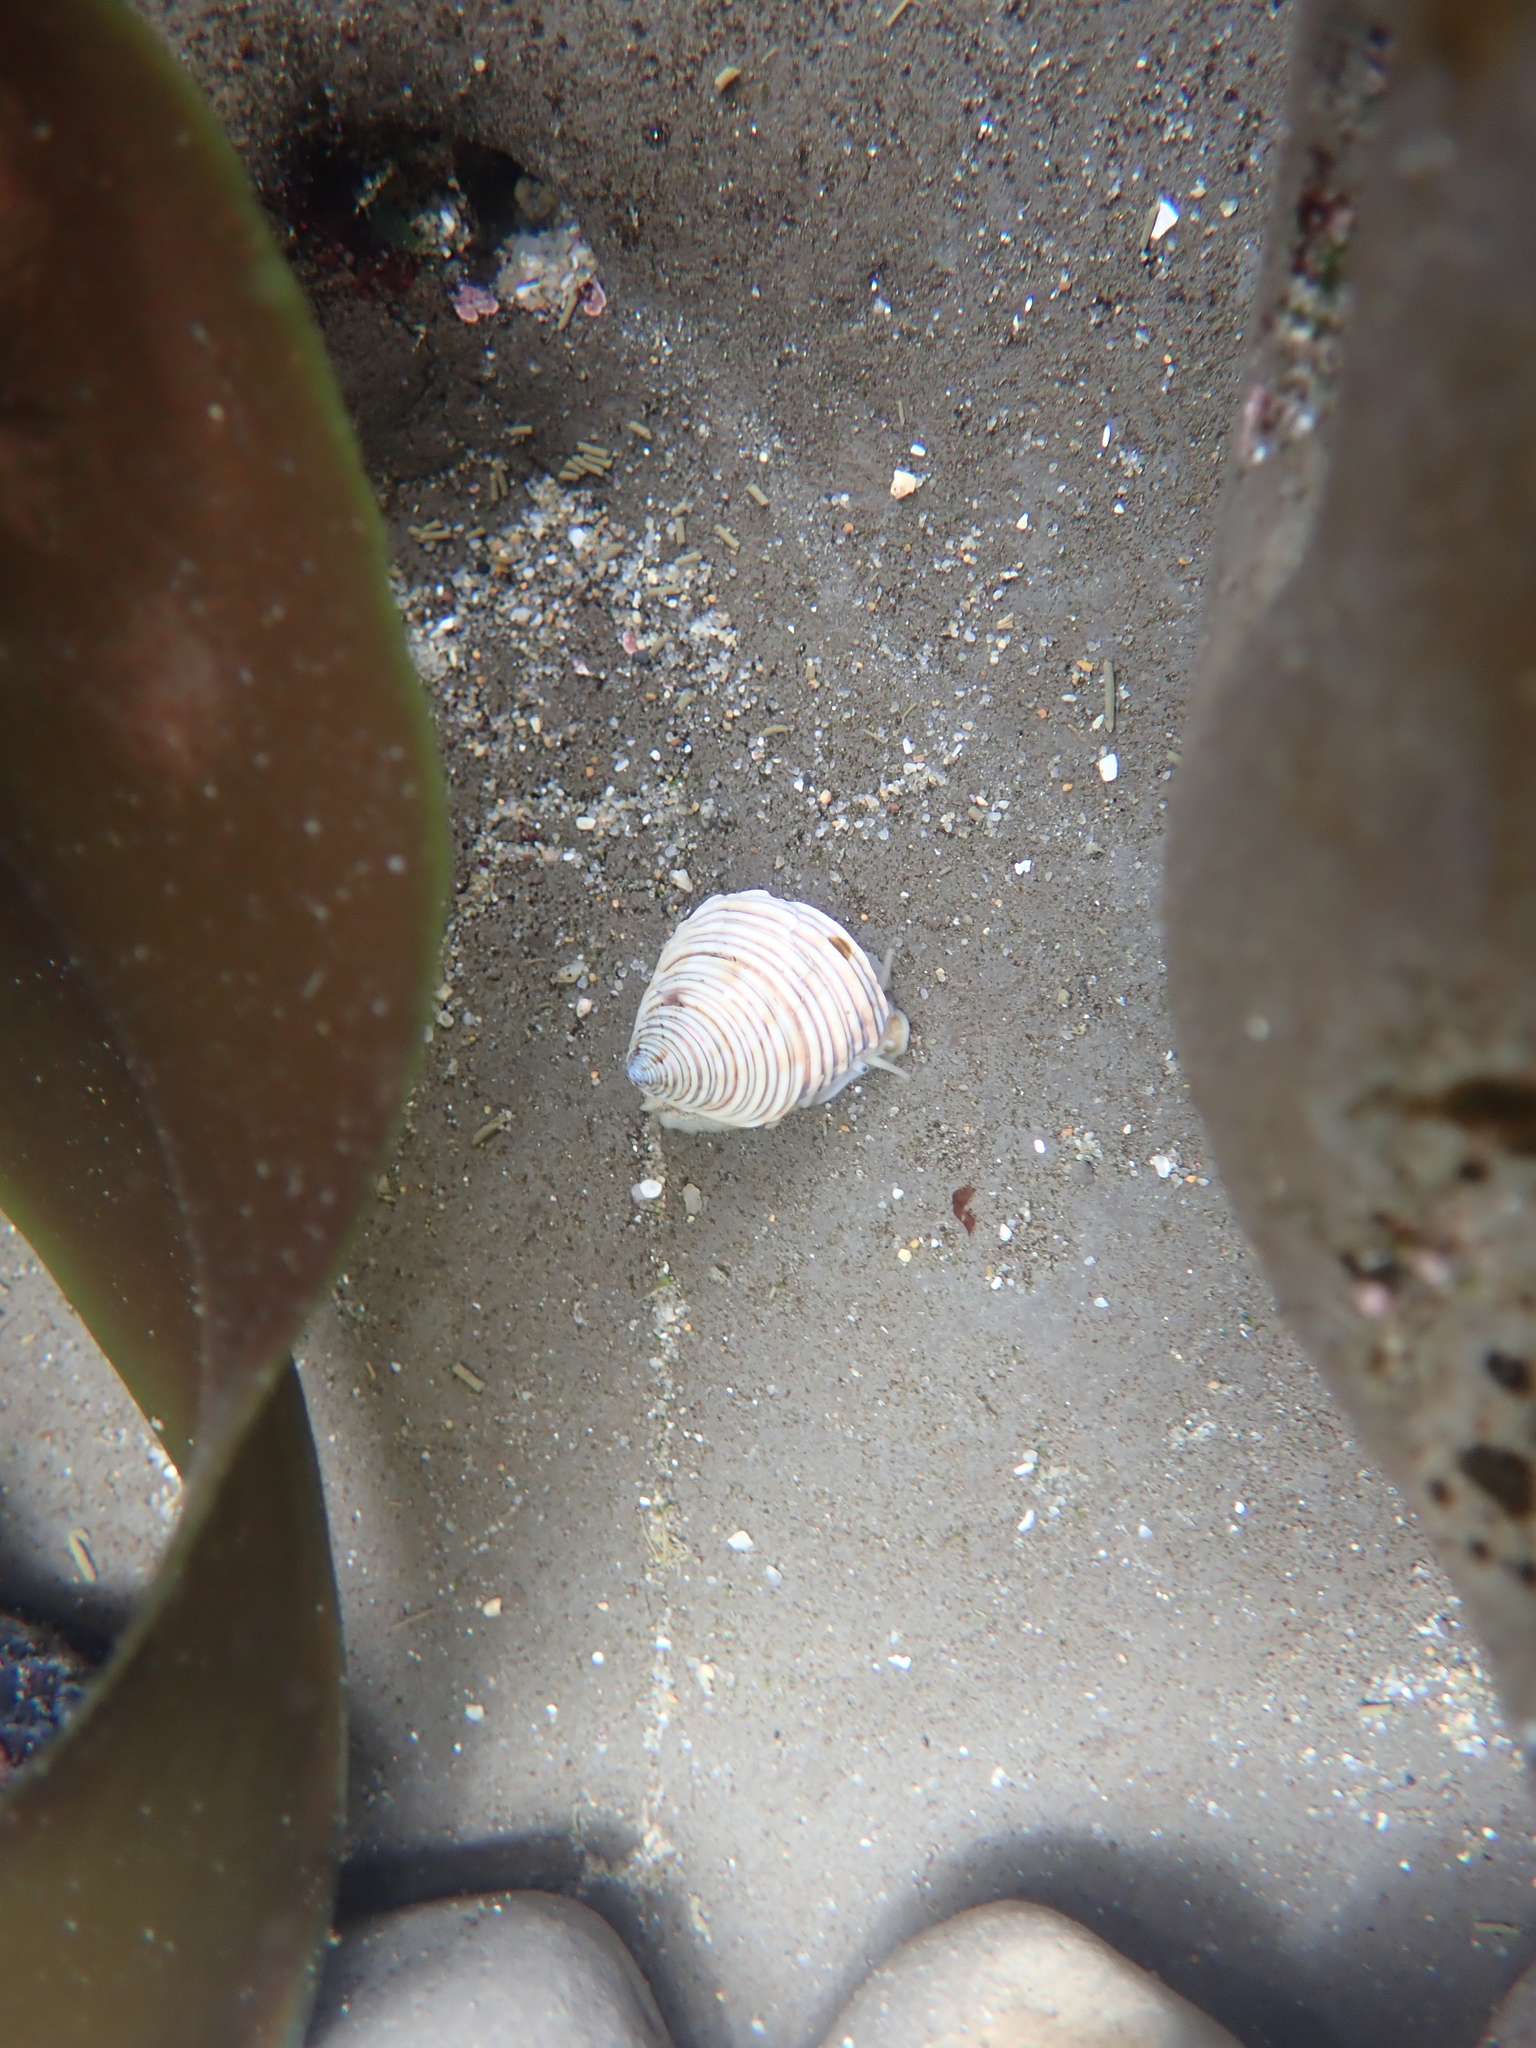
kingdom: Animalia
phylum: Mollusca
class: Gastropoda
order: Trochida
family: Calliostomatidae
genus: Calliostoma
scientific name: Calliostoma canaliculatum
